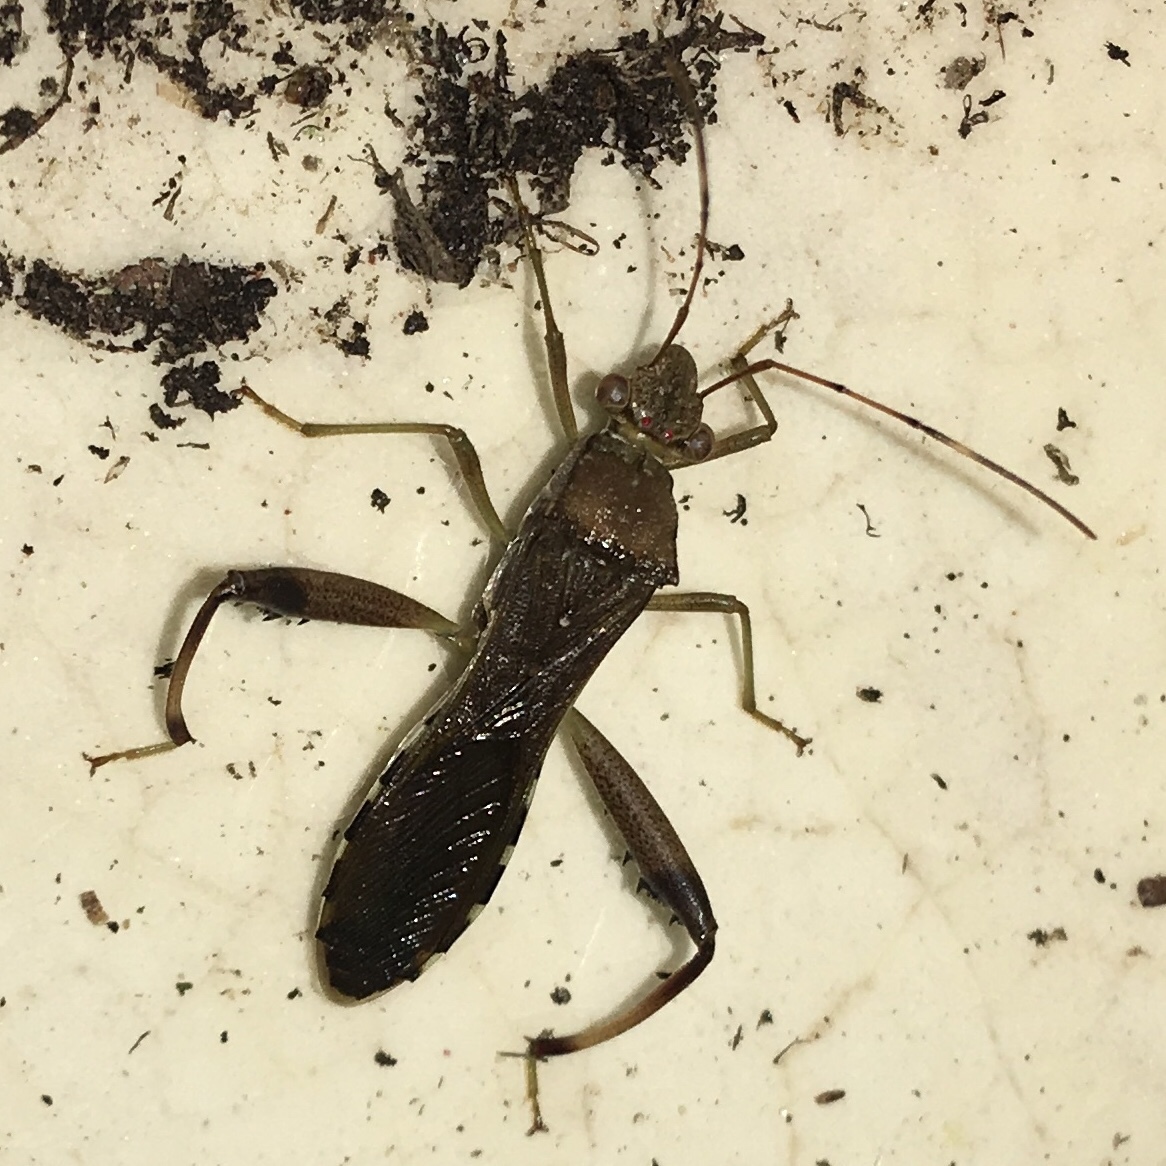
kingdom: Animalia
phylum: Arthropoda
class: Insecta
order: Hemiptera
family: Alydidae
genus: Hyalymenus
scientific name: Hyalymenus tarsatus
